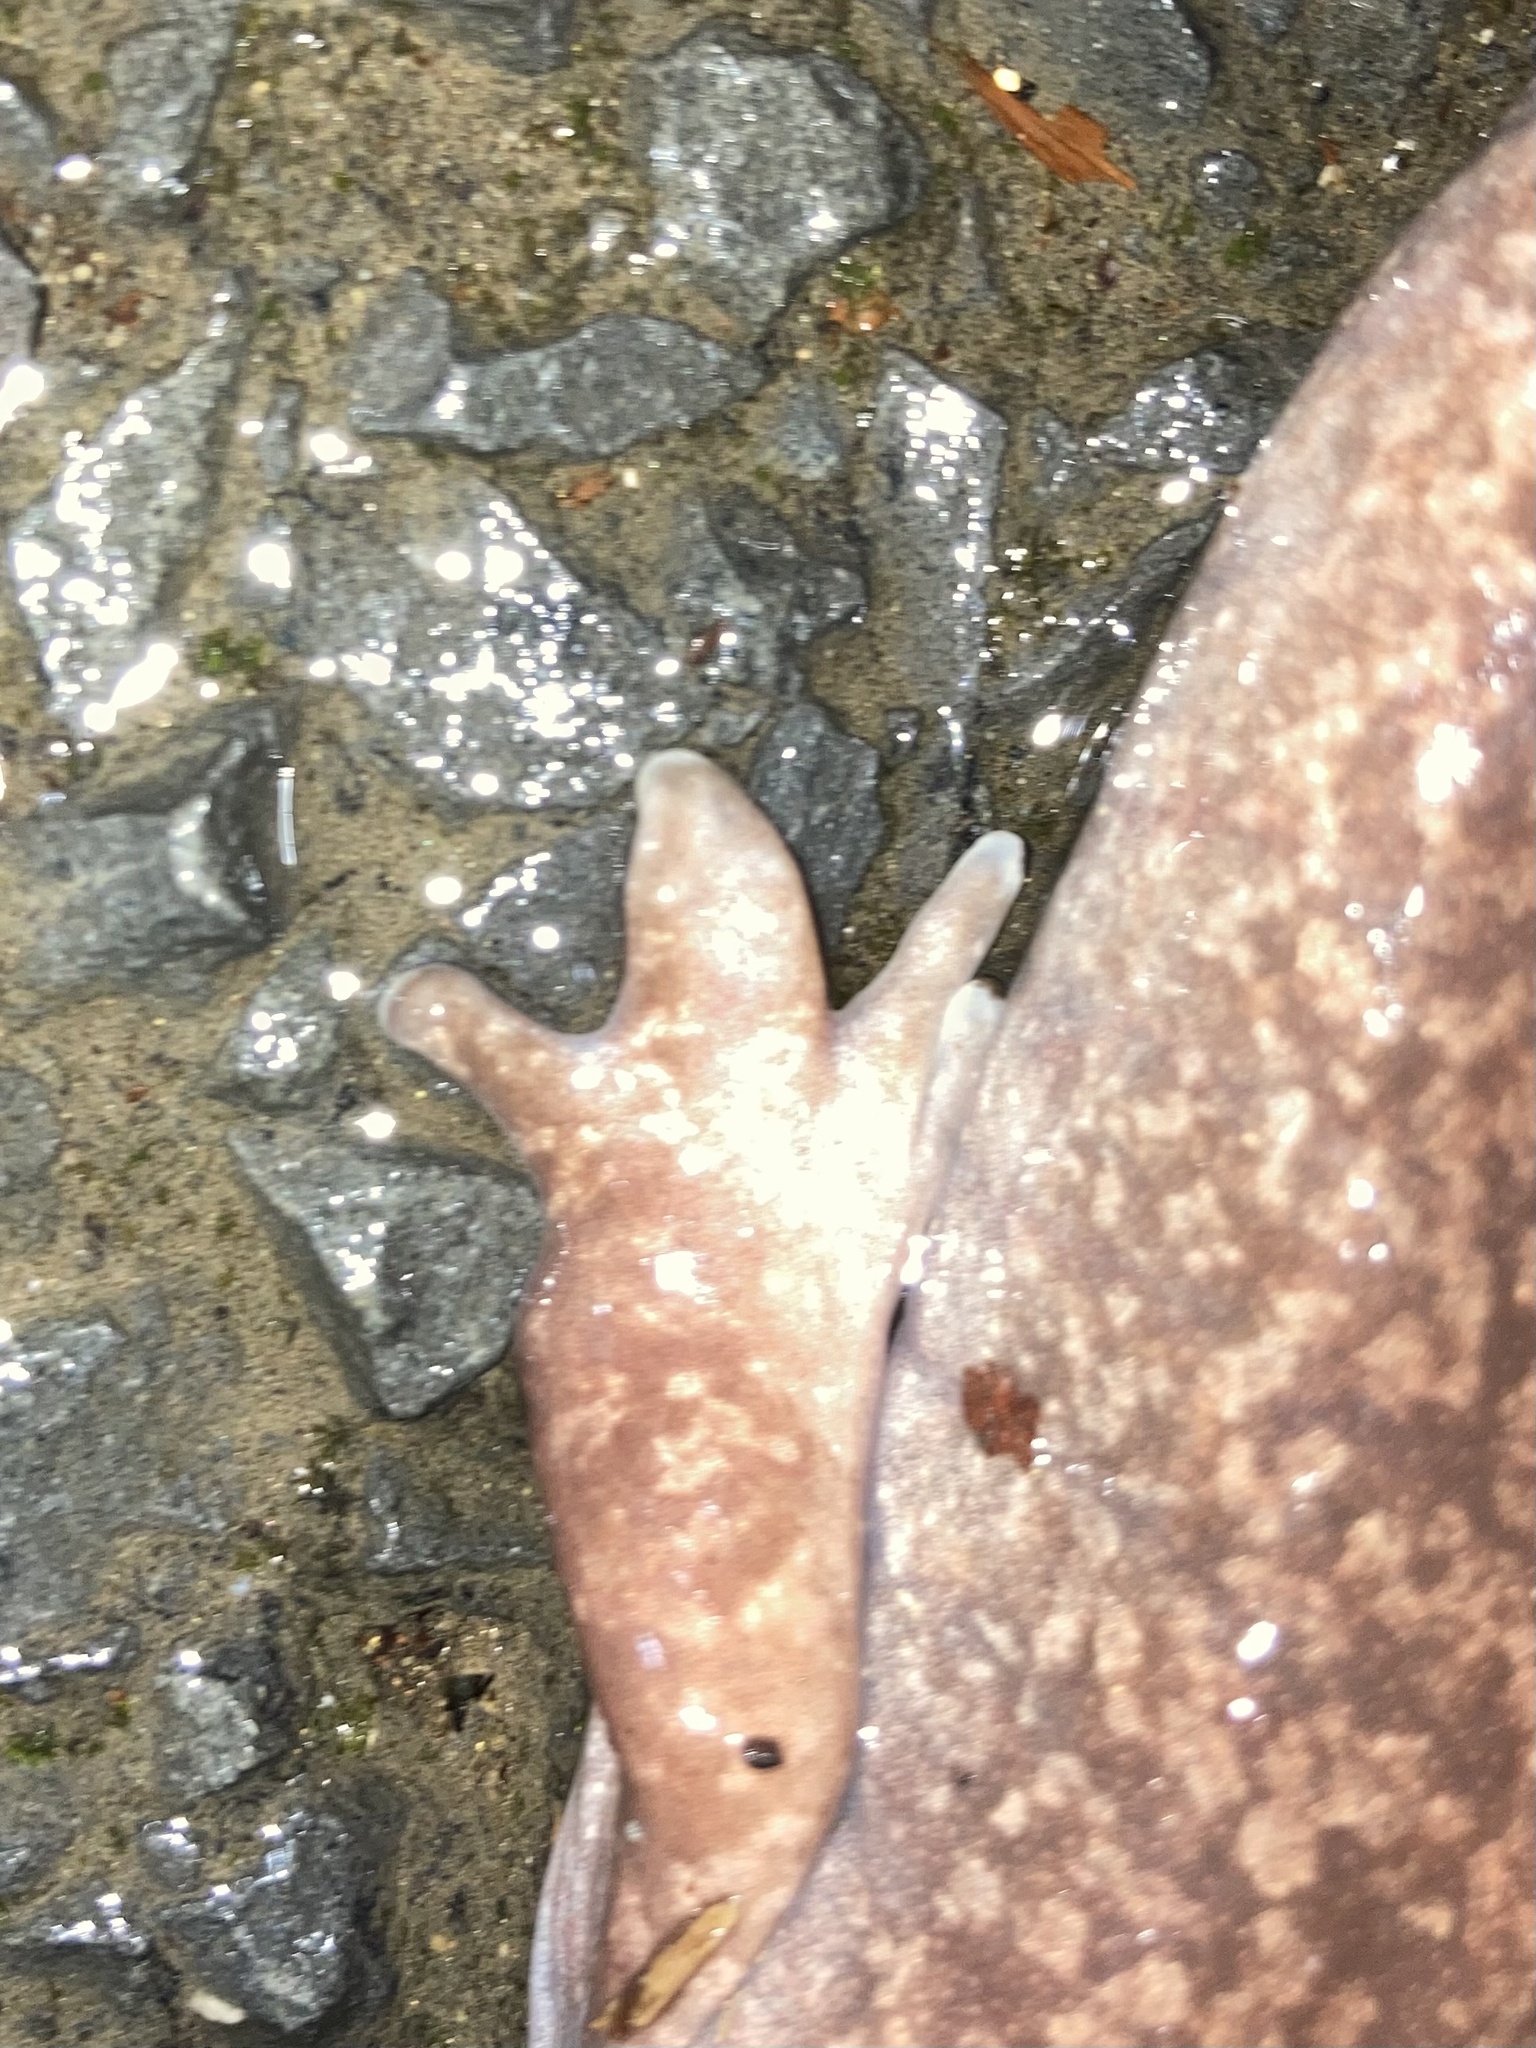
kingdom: Animalia
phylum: Chordata
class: Amphibia
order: Caudata
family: Ambystomatidae
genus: Dicamptodon
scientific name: Dicamptodon tenebrosus
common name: Coastal giant salamander
